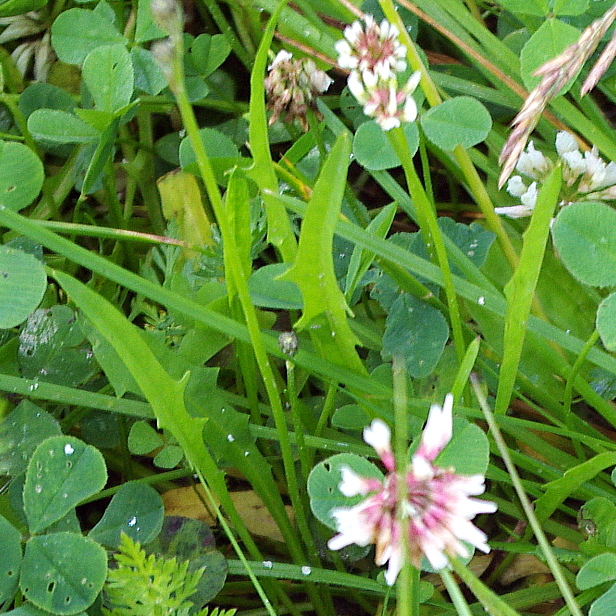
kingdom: Plantae
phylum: Tracheophyta
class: Magnoliopsida
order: Asterales
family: Asteraceae
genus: Scorzoneroides
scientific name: Scorzoneroides autumnalis
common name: Autumn hawkbit
